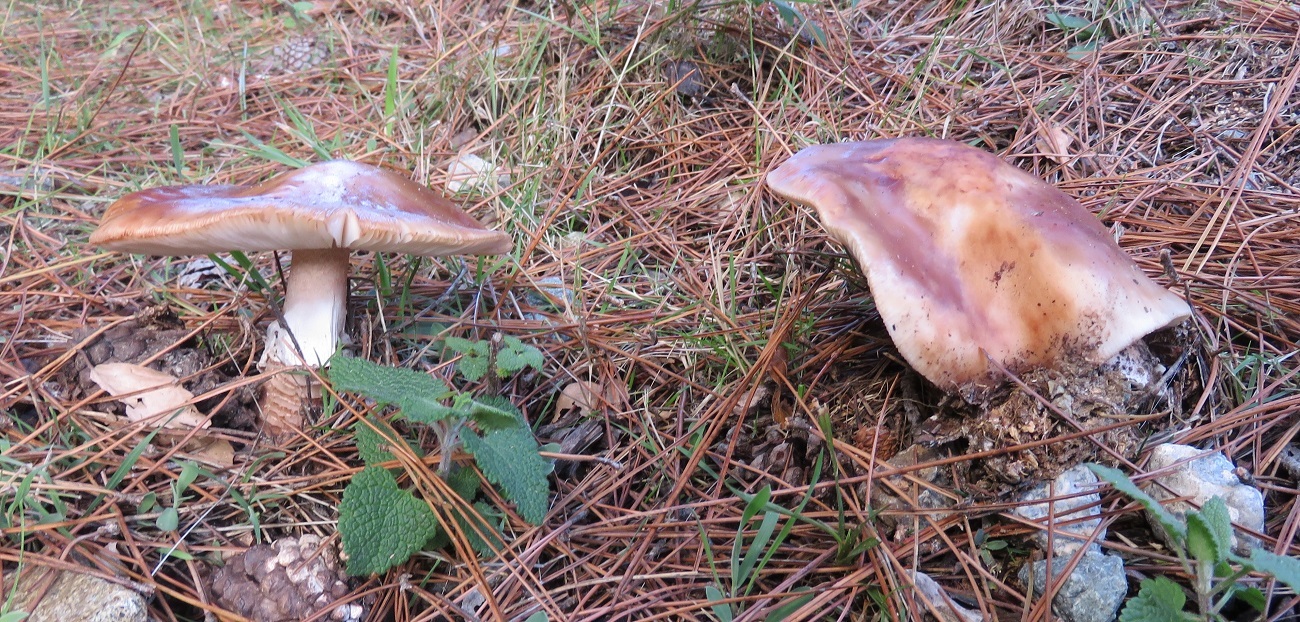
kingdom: Fungi
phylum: Basidiomycota
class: Agaricomycetes
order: Agaricales
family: Amanitaceae
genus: Amanita
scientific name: Amanita rubescens
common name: Blusher
